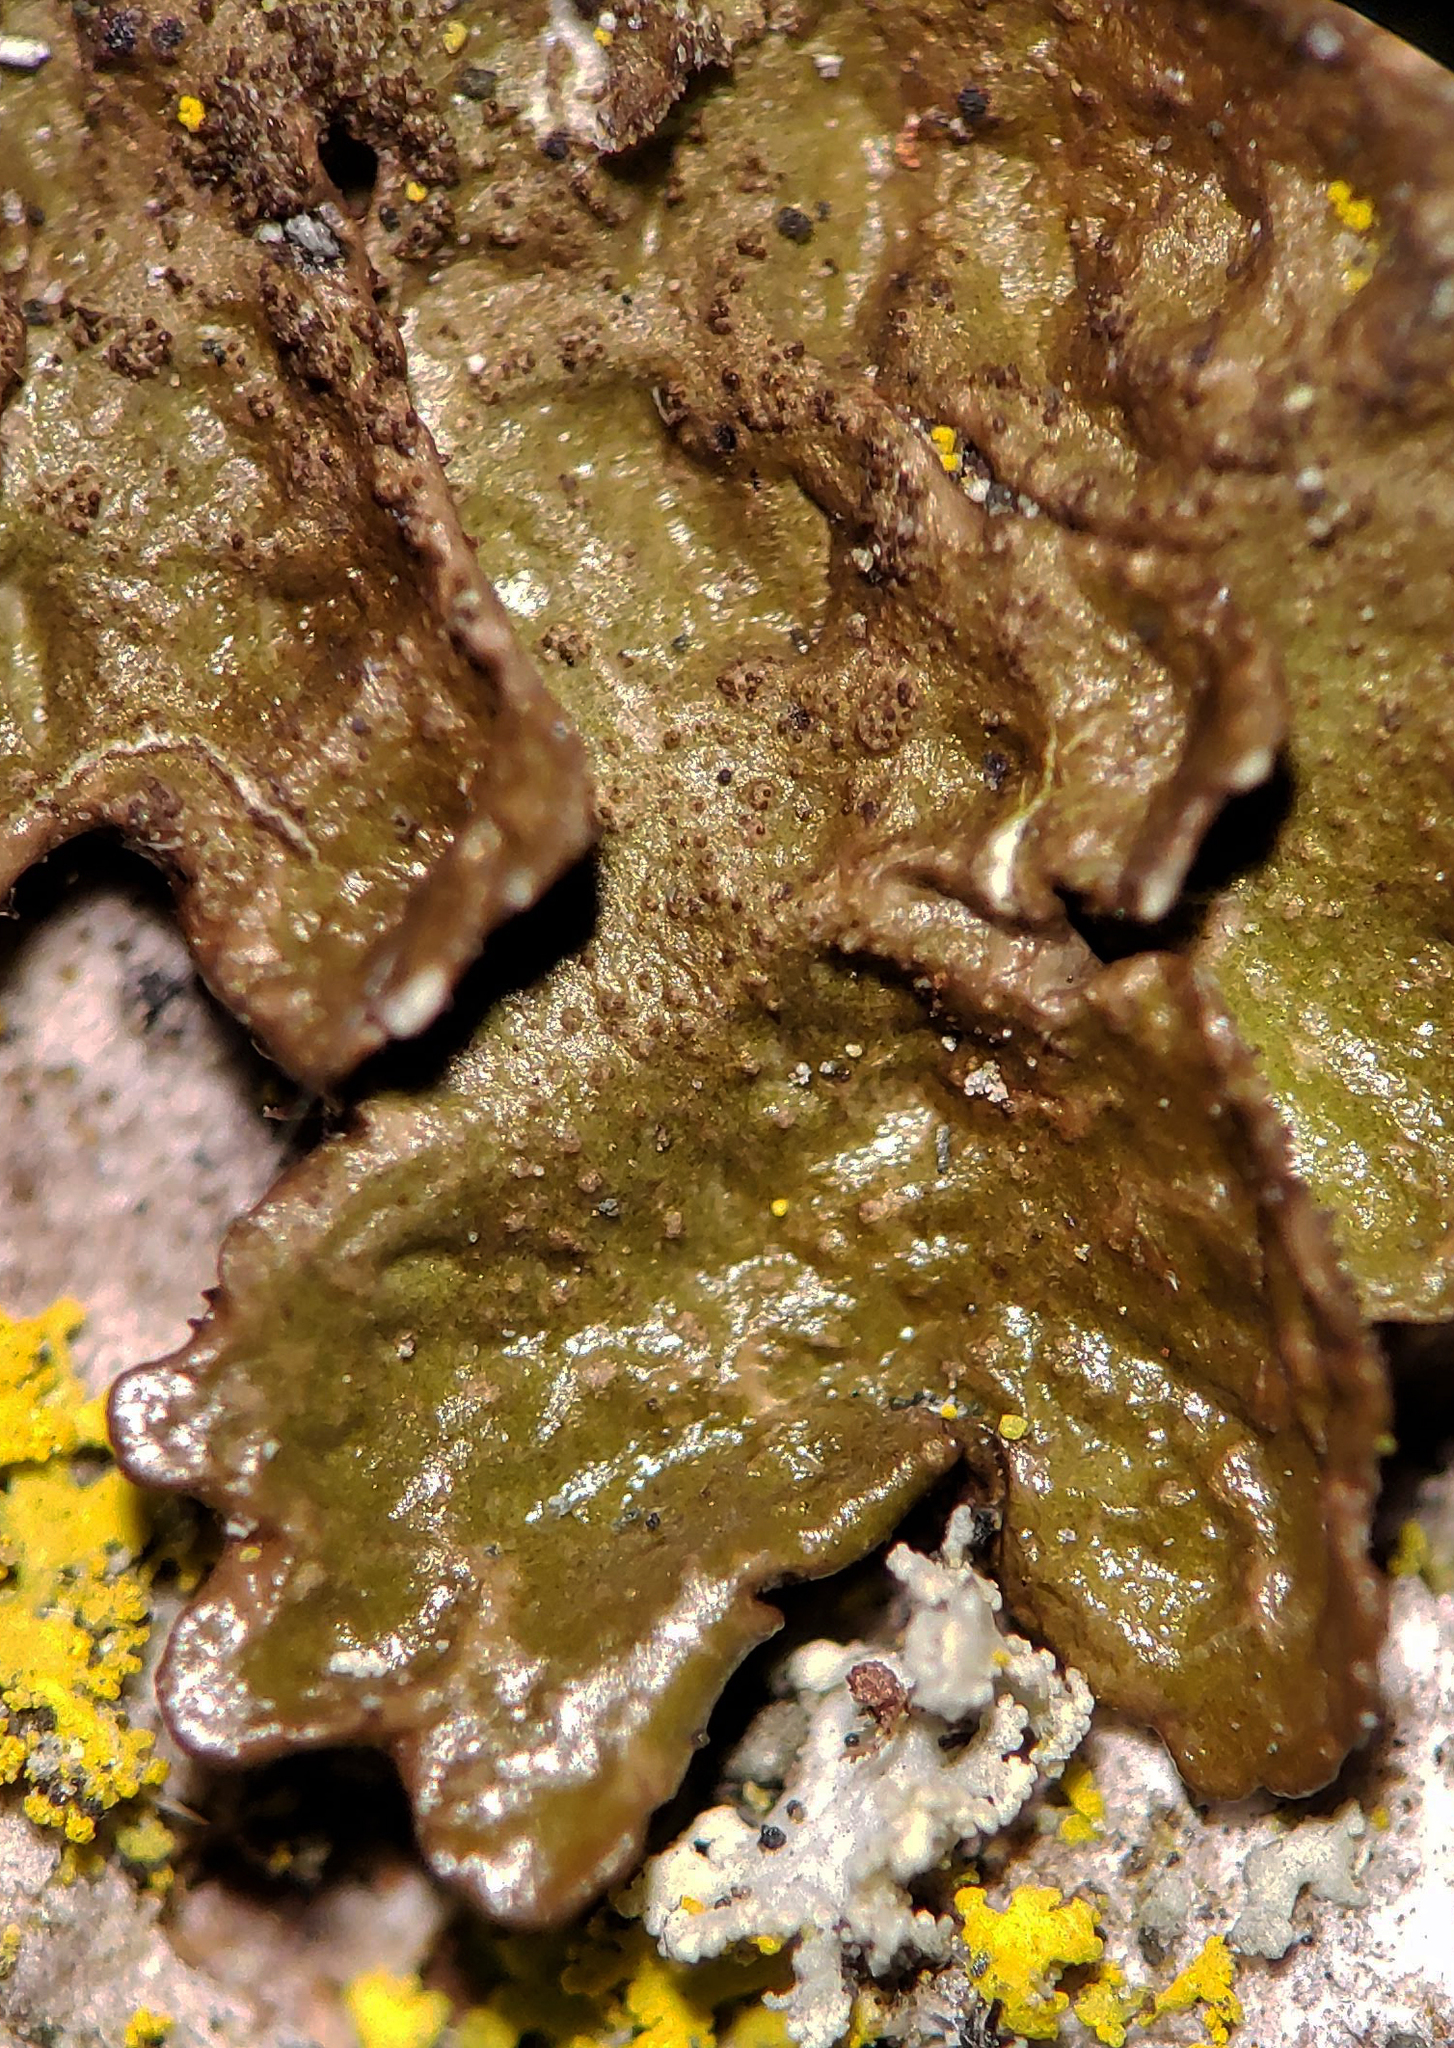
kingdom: Fungi
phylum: Ascomycota
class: Lecanoromycetes
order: Lecanorales
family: Parmeliaceae
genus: Melanelixia
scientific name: Melanelixia subaurifera
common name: Abraded camouflage lichen
